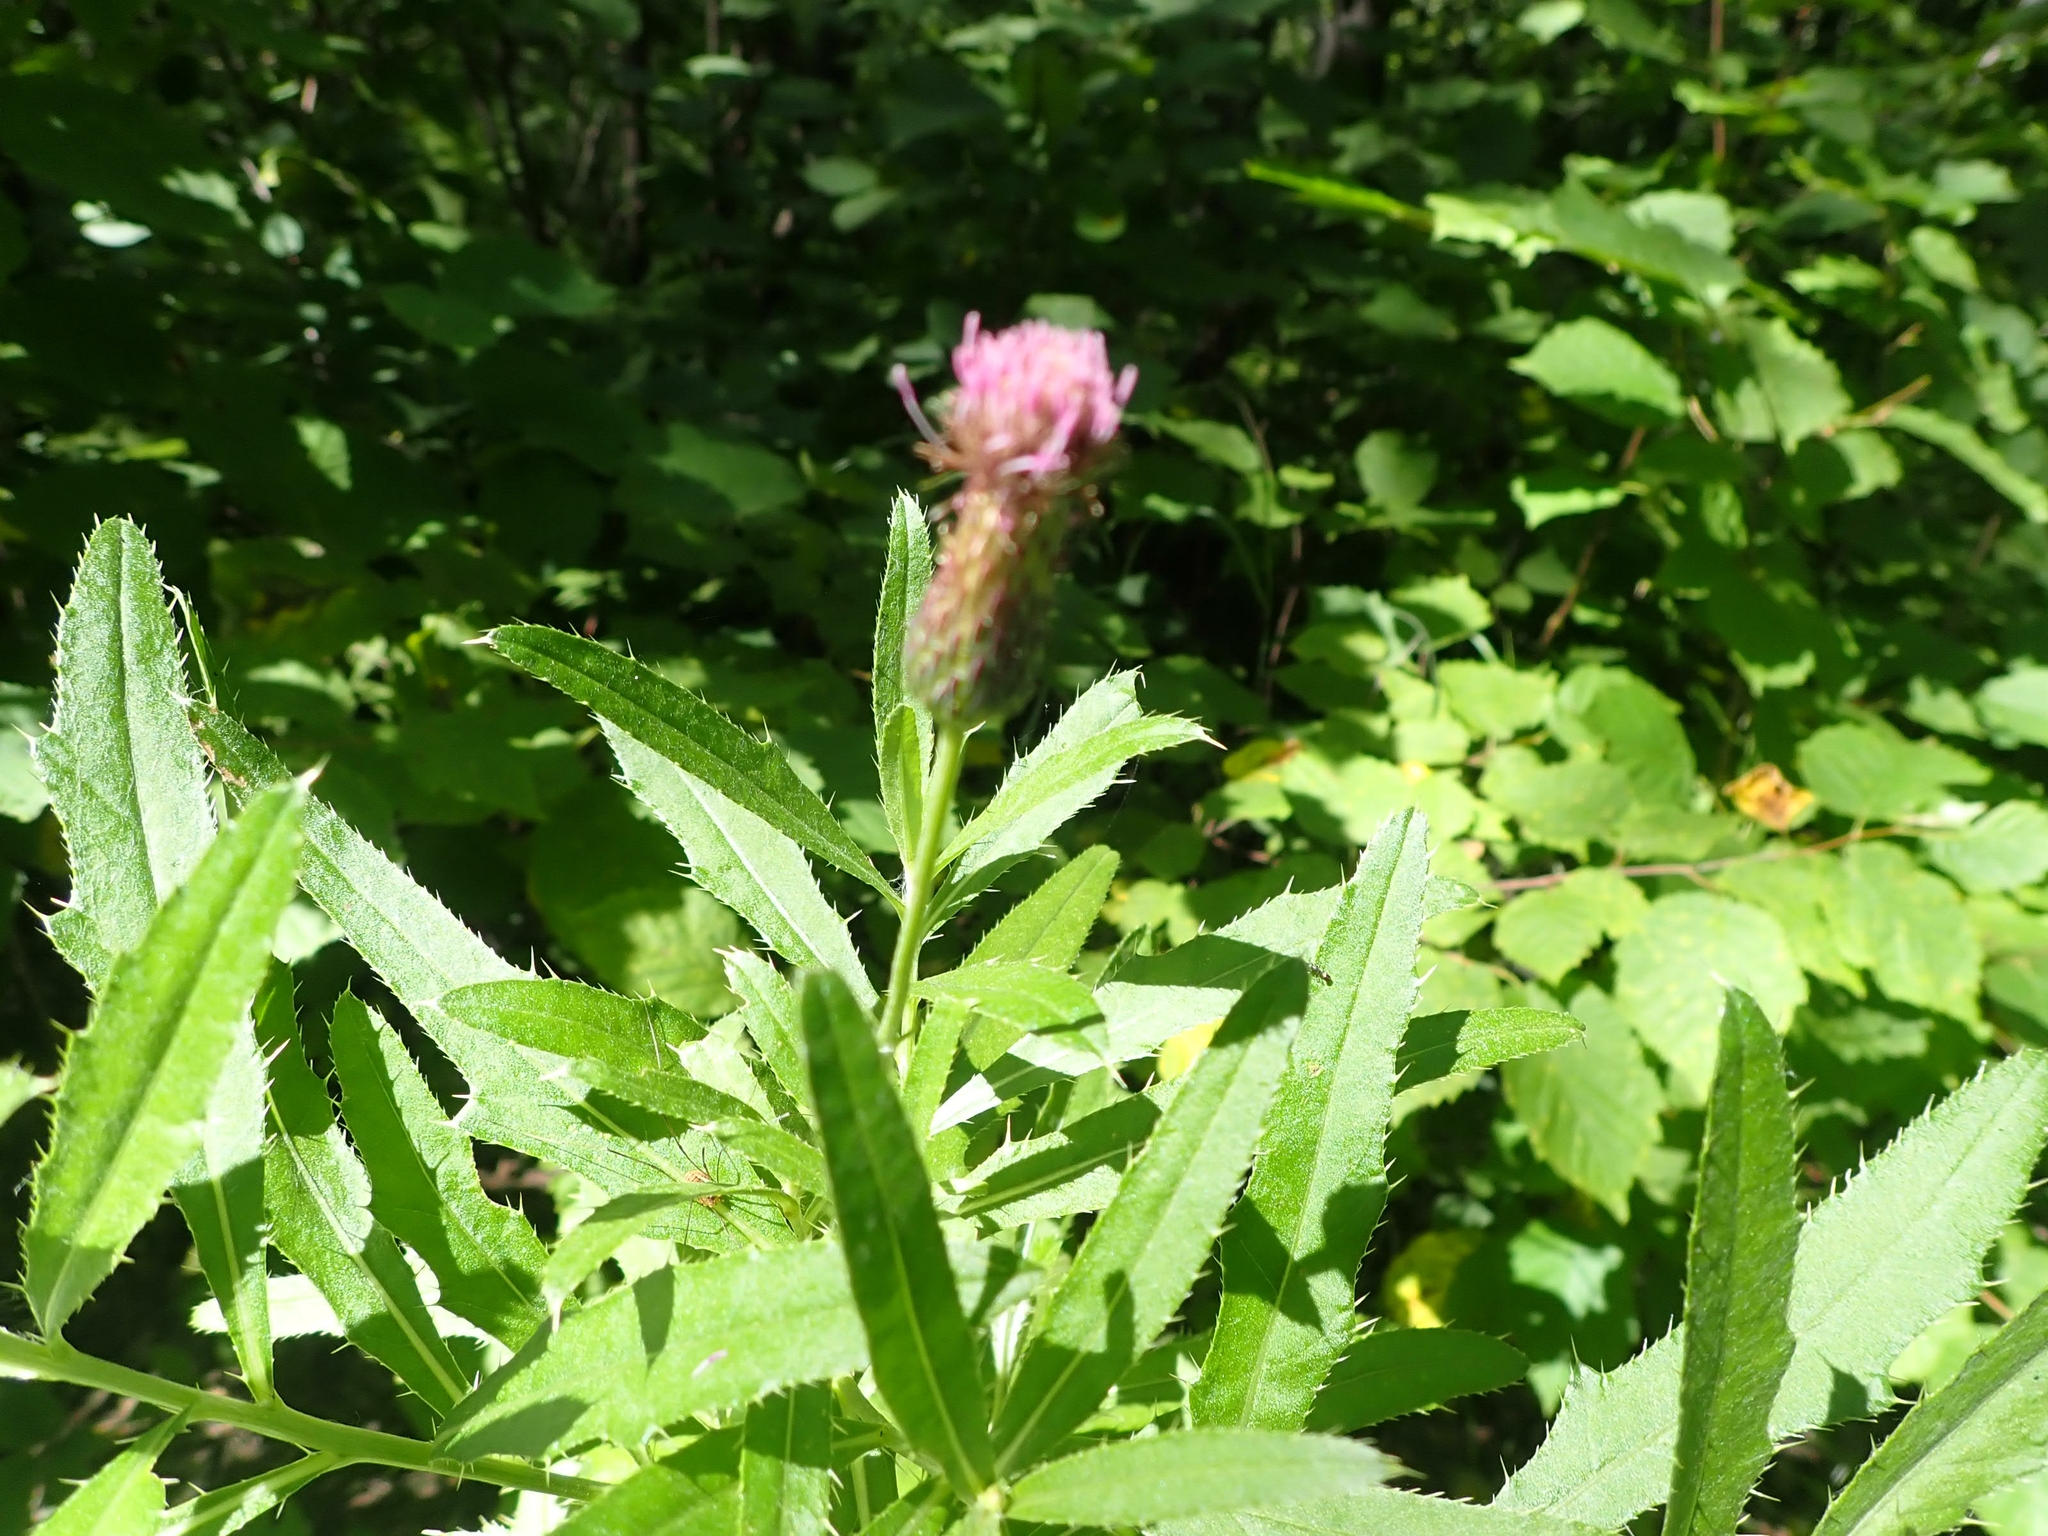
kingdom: Plantae
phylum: Tracheophyta
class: Magnoliopsida
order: Asterales
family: Asteraceae
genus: Cirsium
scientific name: Cirsium arvense
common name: Creeping thistle
